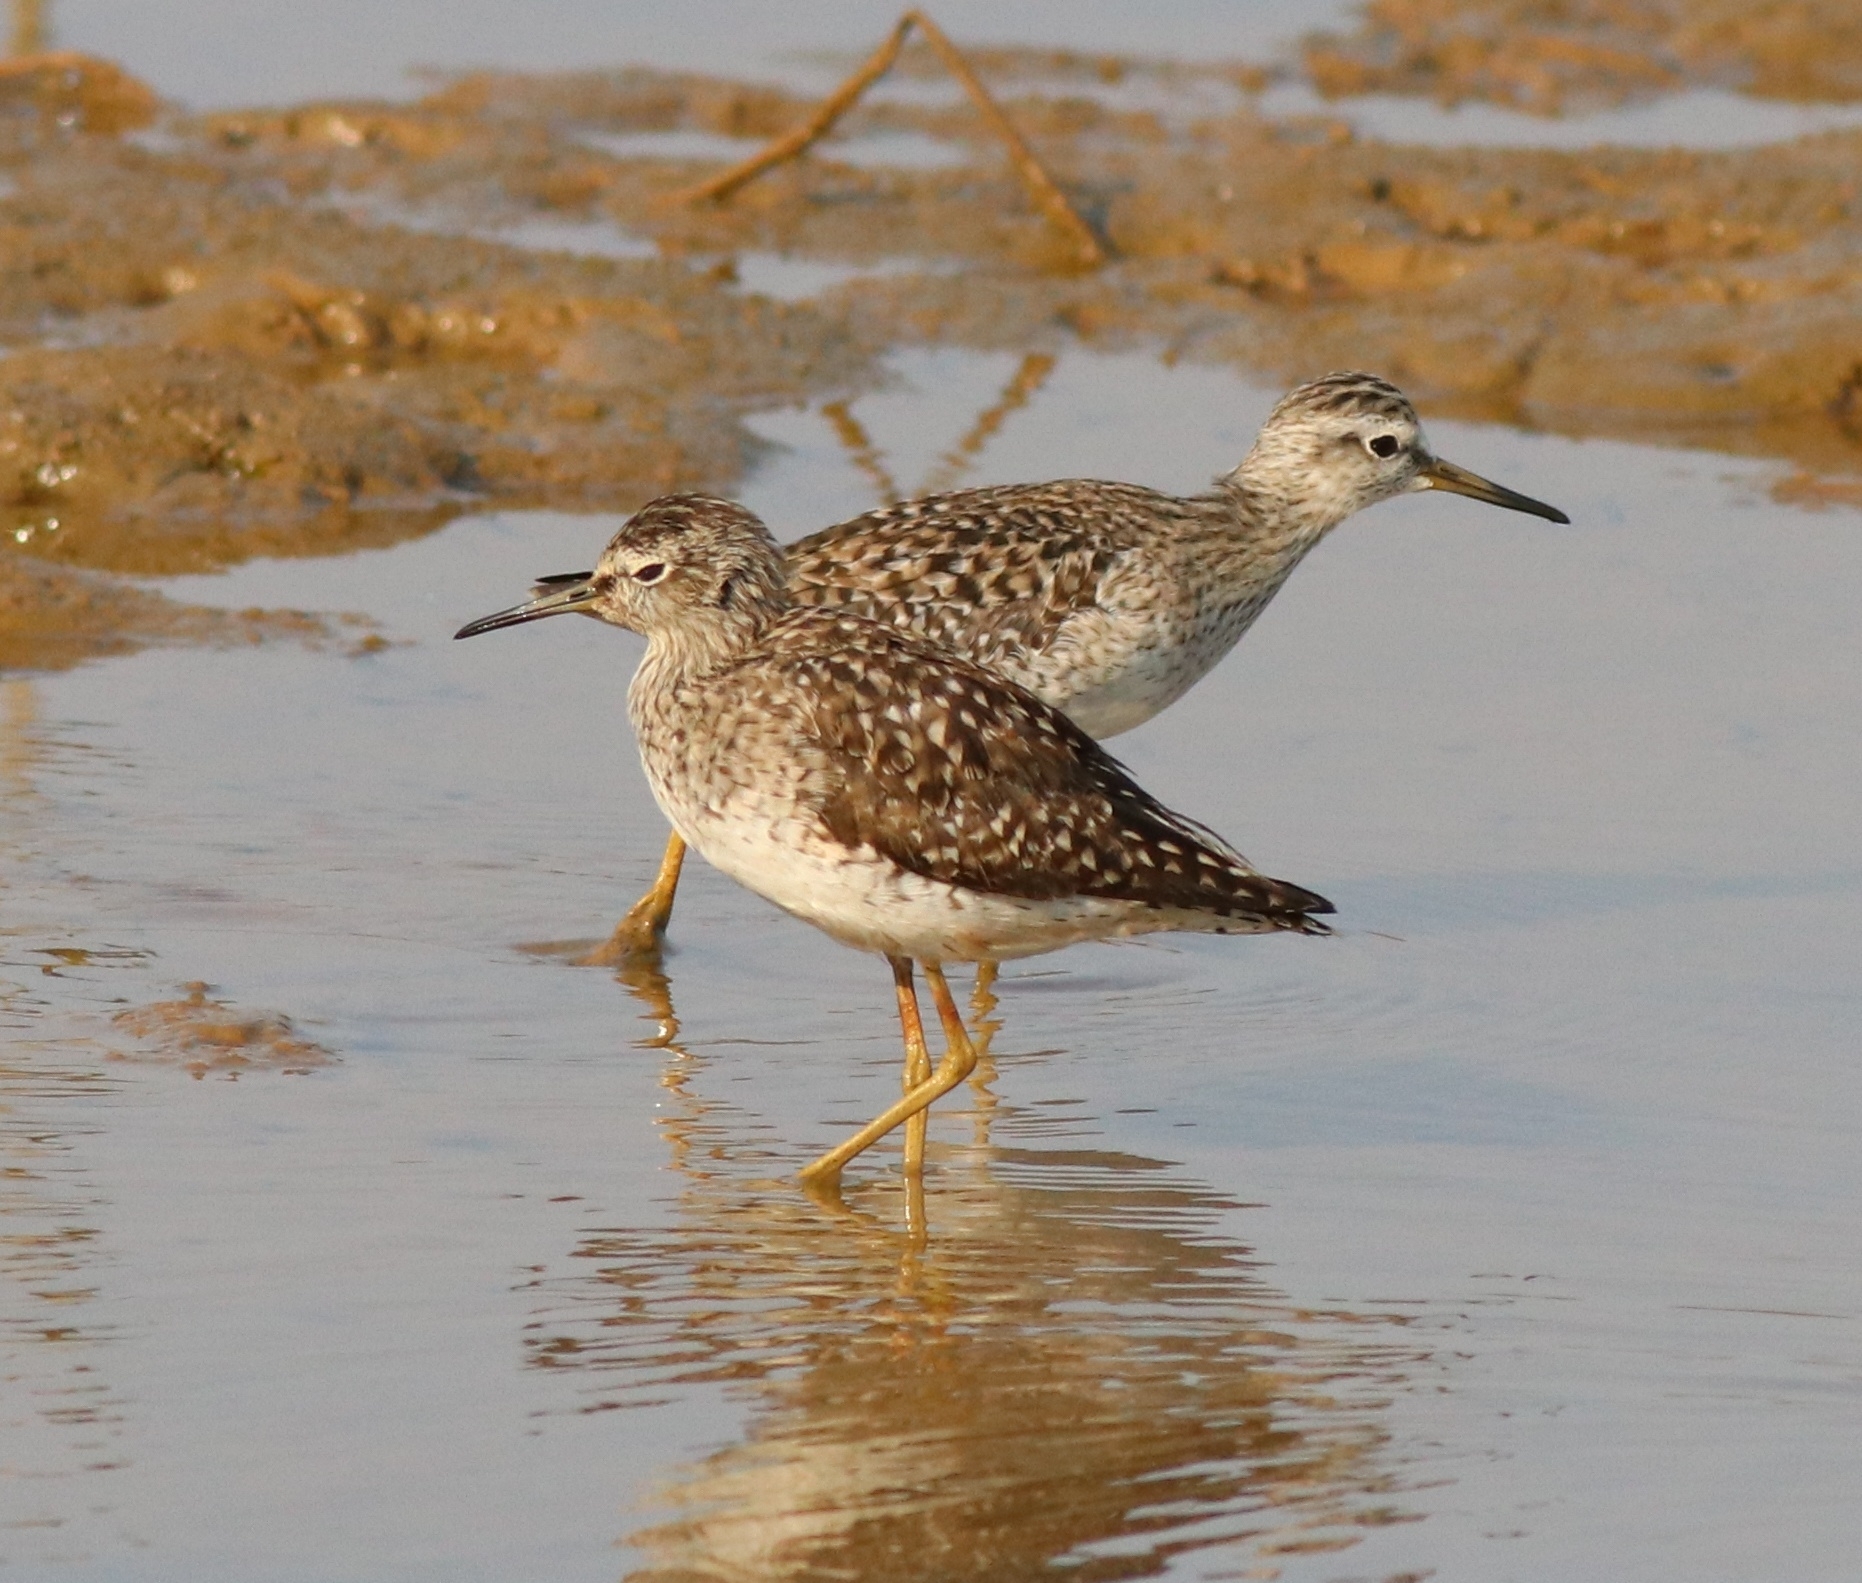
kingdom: Animalia
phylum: Chordata
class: Aves
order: Charadriiformes
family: Scolopacidae
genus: Tringa
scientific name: Tringa glareola
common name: Wood sandpiper
